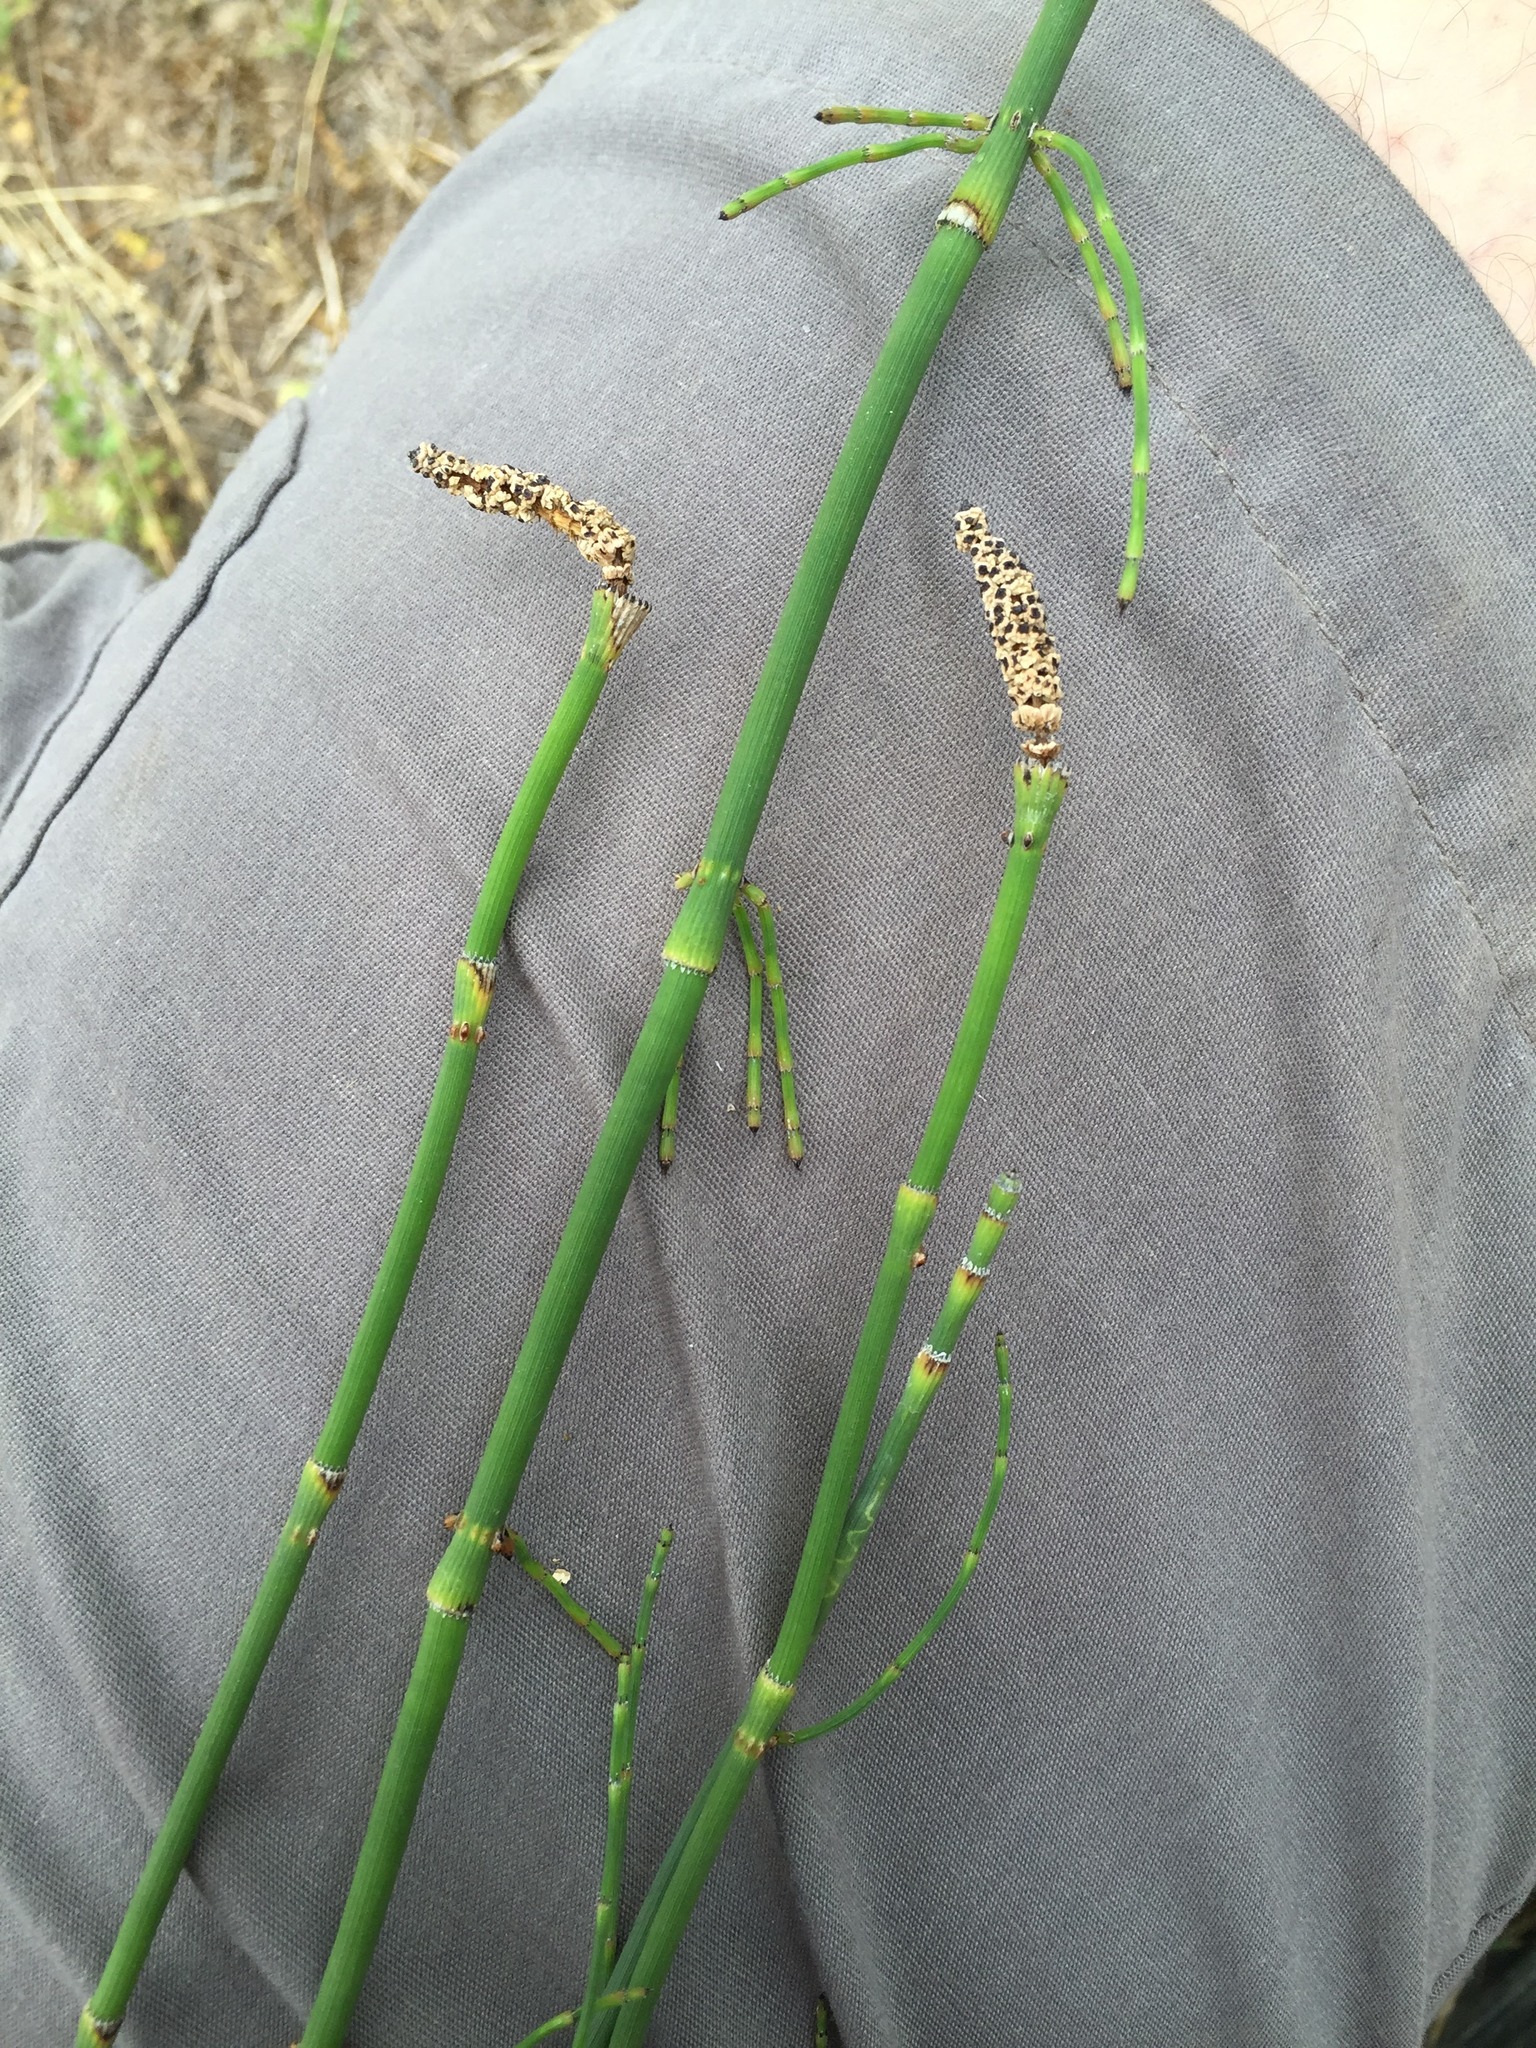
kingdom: Plantae
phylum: Tracheophyta
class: Polypodiopsida
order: Equisetales
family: Equisetaceae
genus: Equisetum
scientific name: Equisetum ramosissimum
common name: Branched horsetail
